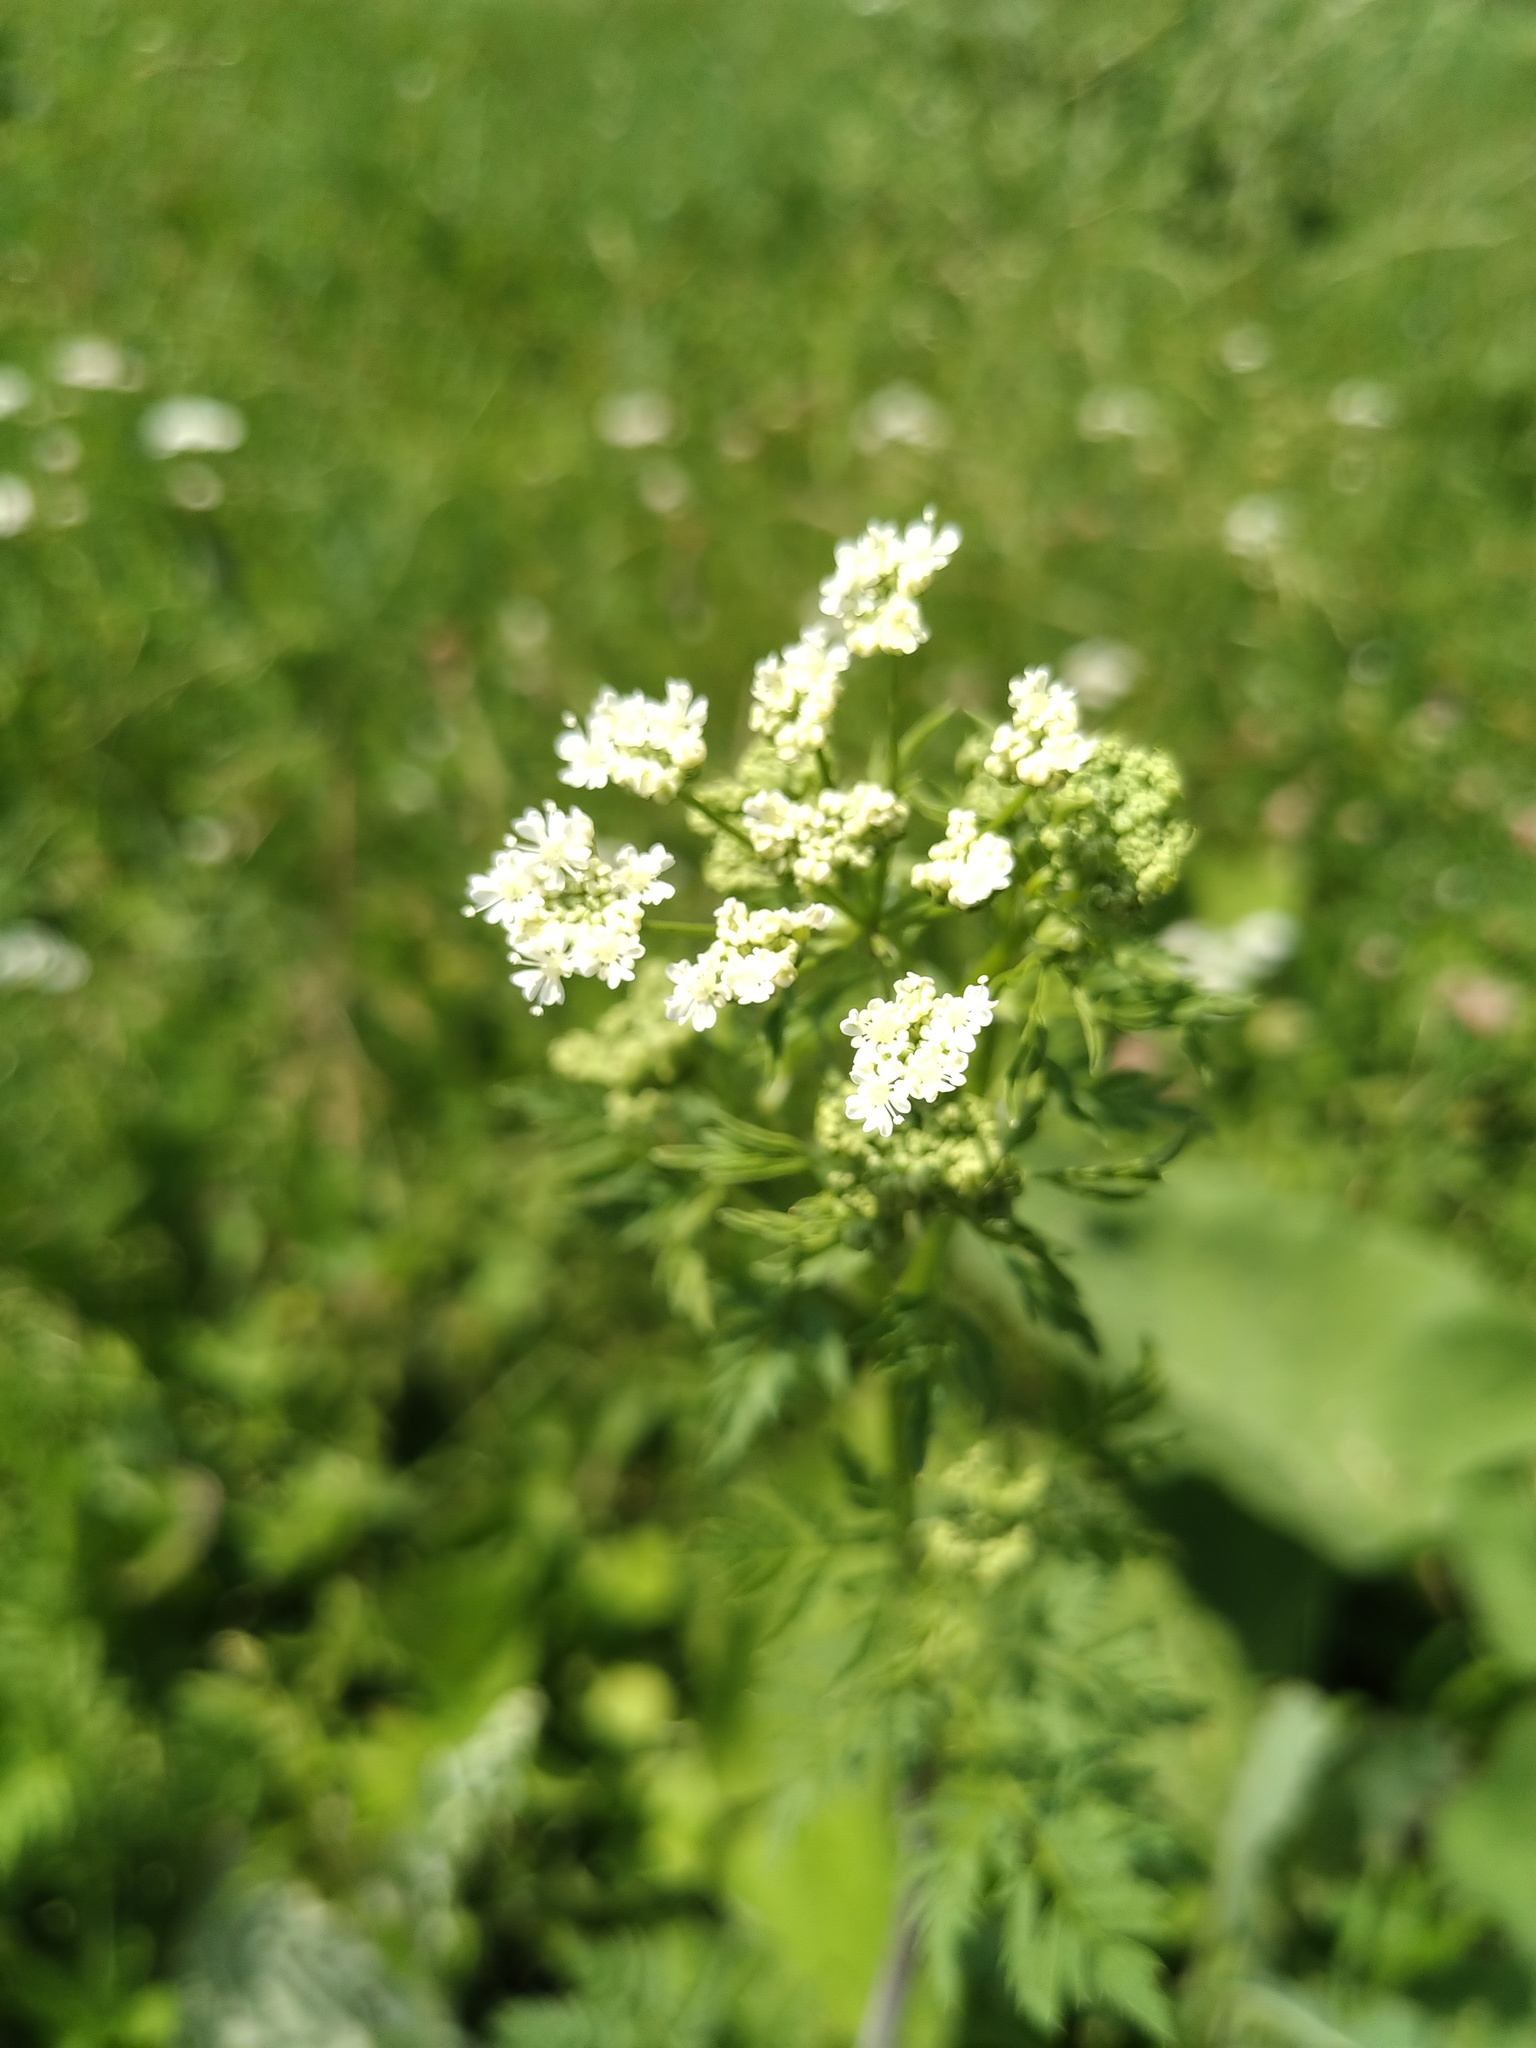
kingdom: Plantae
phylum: Tracheophyta
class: Magnoliopsida
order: Apiales
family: Apiaceae
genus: Conium
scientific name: Conium maculatum
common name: Hemlock
